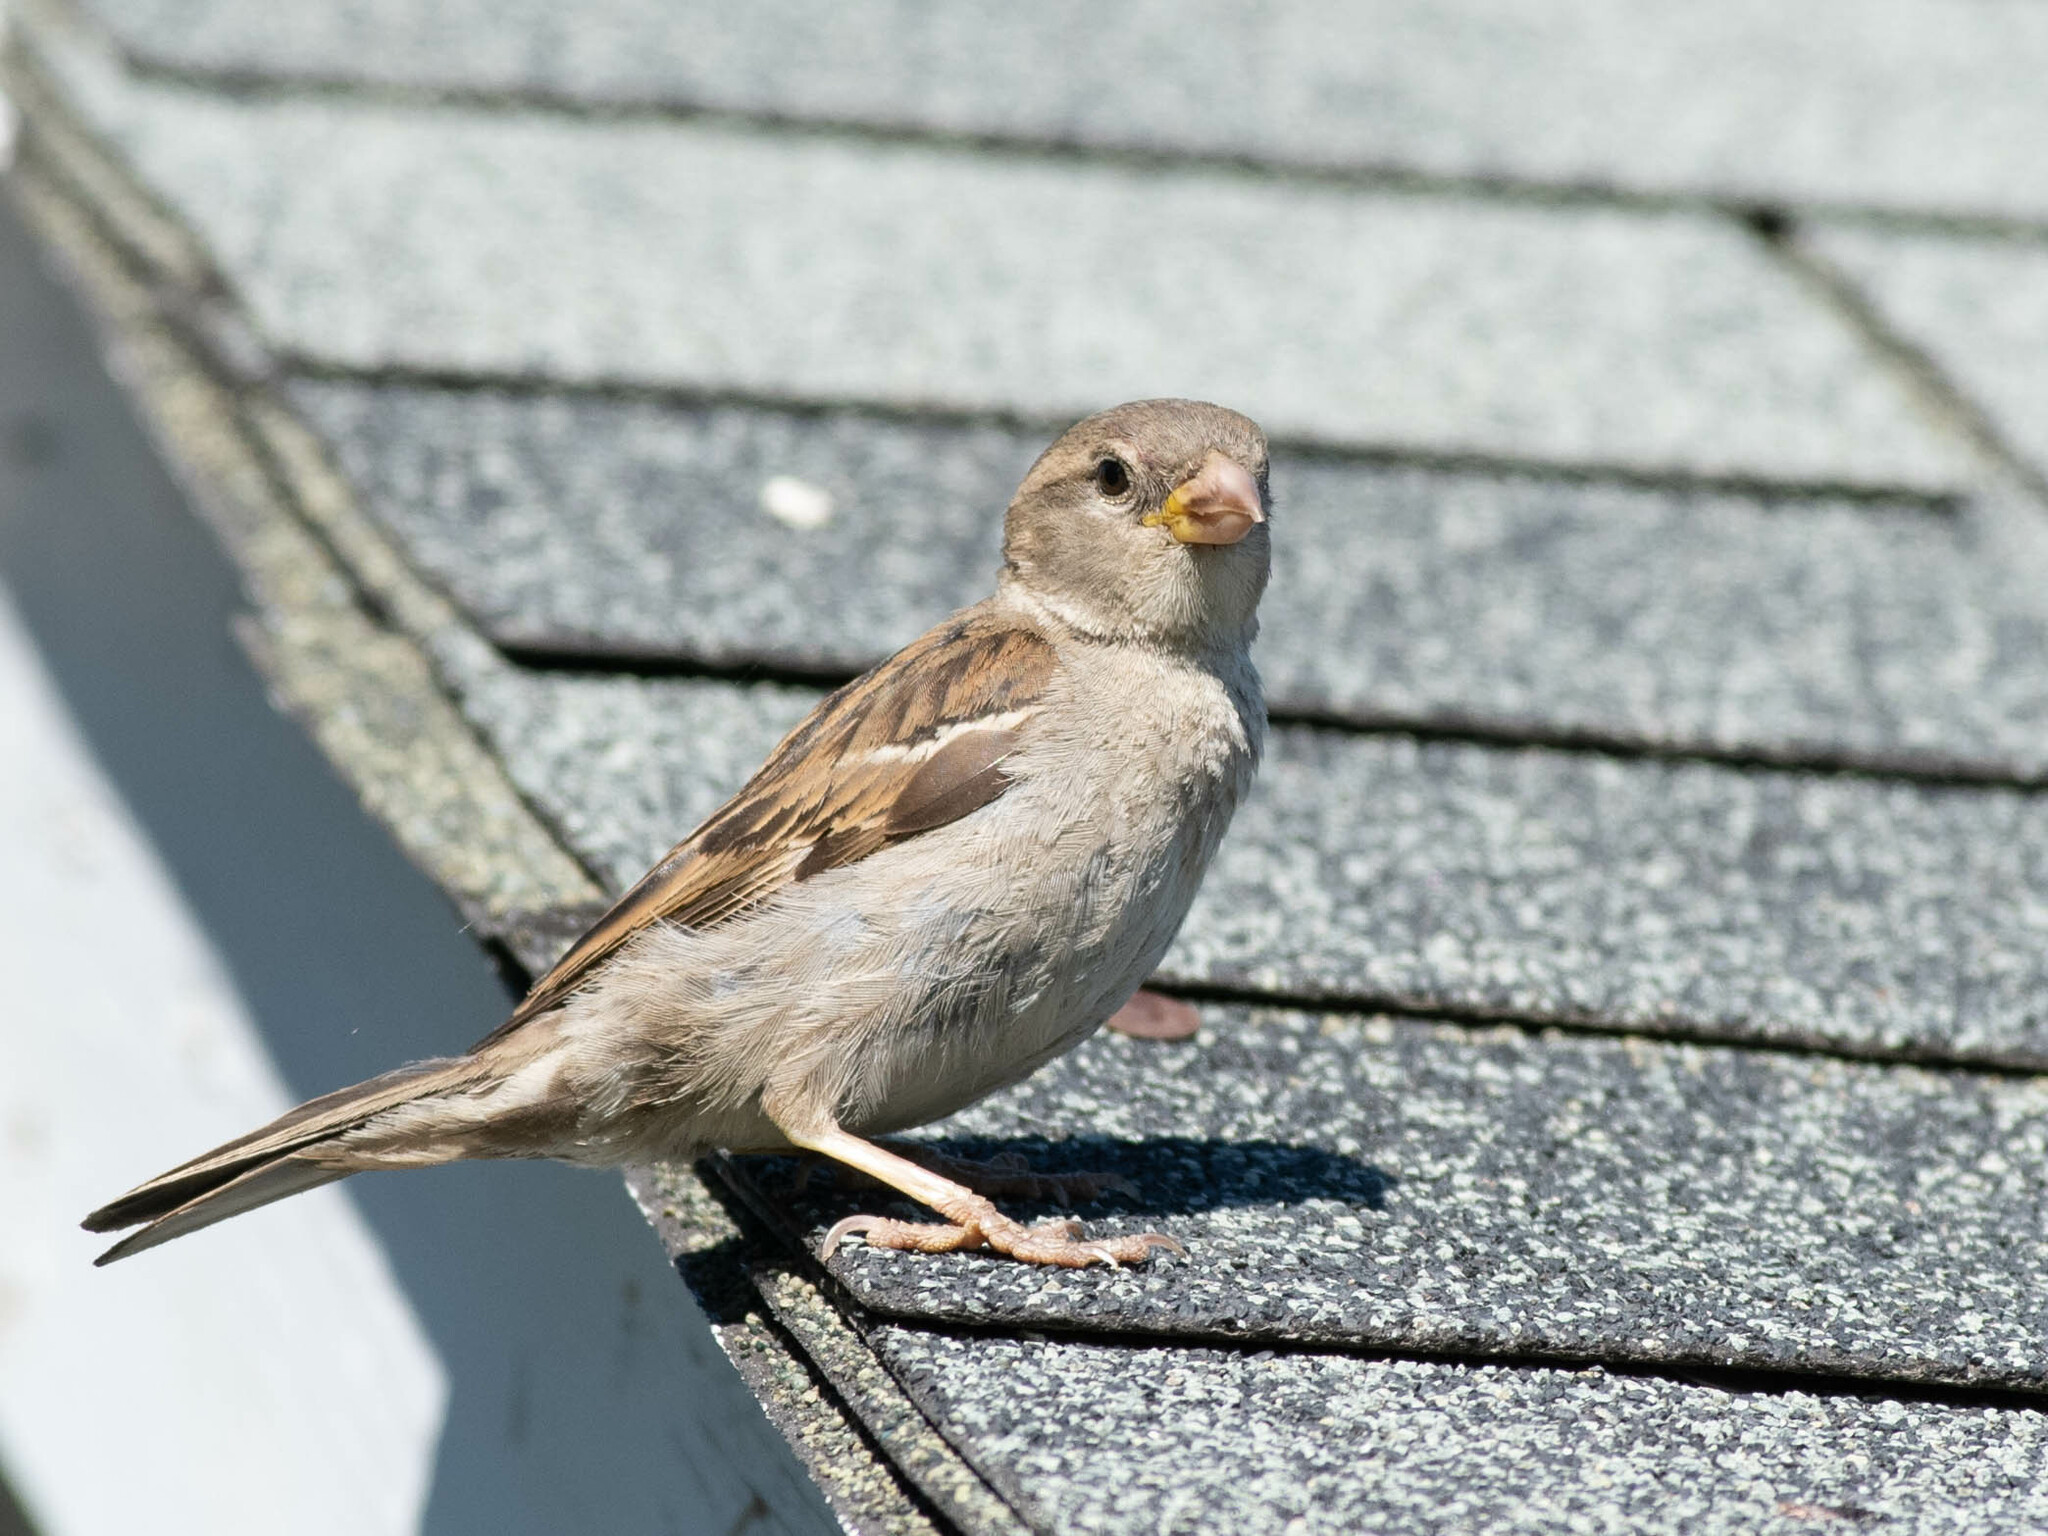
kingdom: Animalia
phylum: Chordata
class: Aves
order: Passeriformes
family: Passeridae
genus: Passer
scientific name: Passer domesticus
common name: House sparrow
